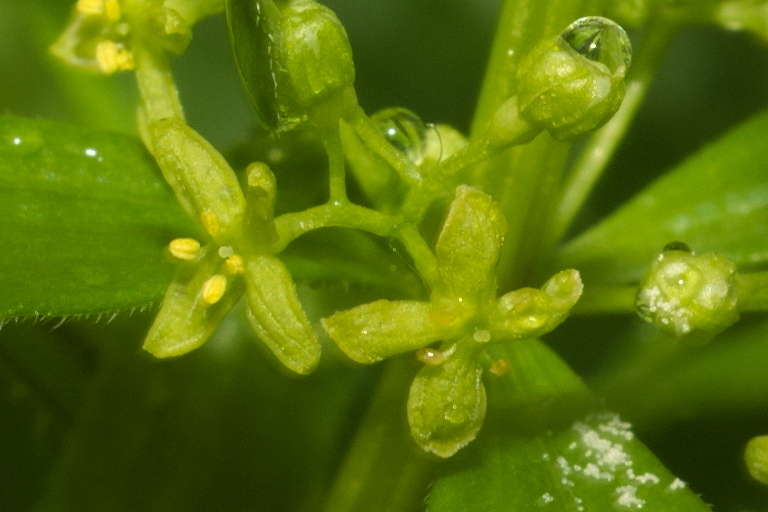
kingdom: Plantae
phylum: Tracheophyta
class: Magnoliopsida
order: Gentianales
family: Rubiaceae
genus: Cruciata
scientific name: Cruciata glabra
